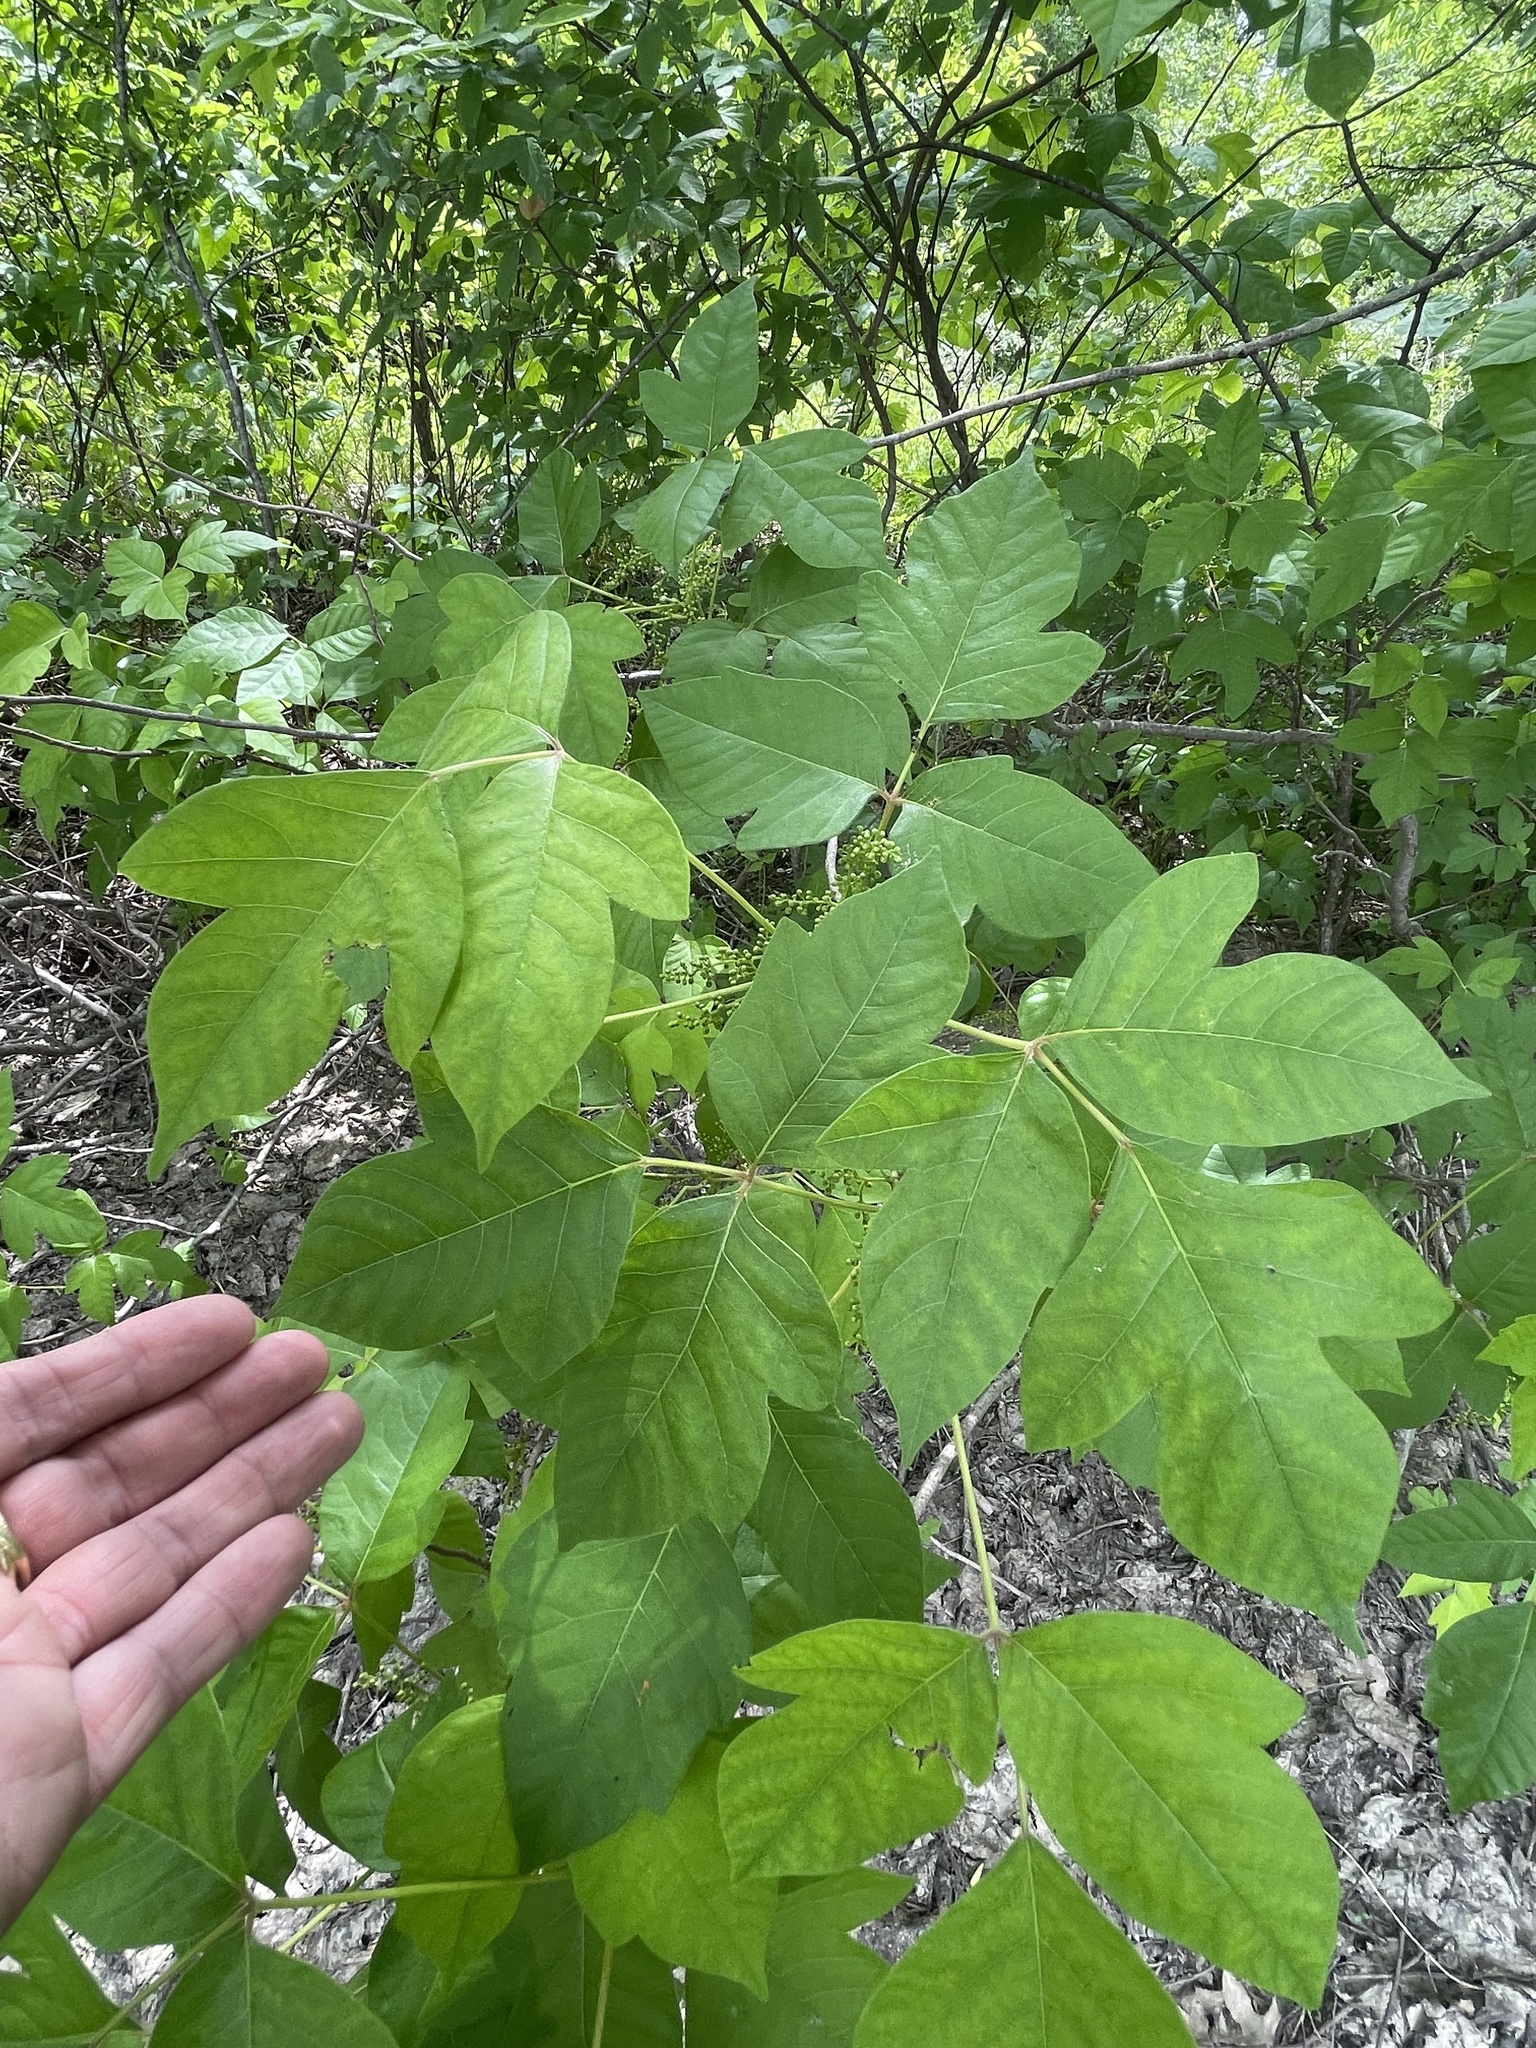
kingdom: Plantae
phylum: Tracheophyta
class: Magnoliopsida
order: Sapindales
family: Anacardiaceae
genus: Toxicodendron
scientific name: Toxicodendron radicans
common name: Poison ivy
